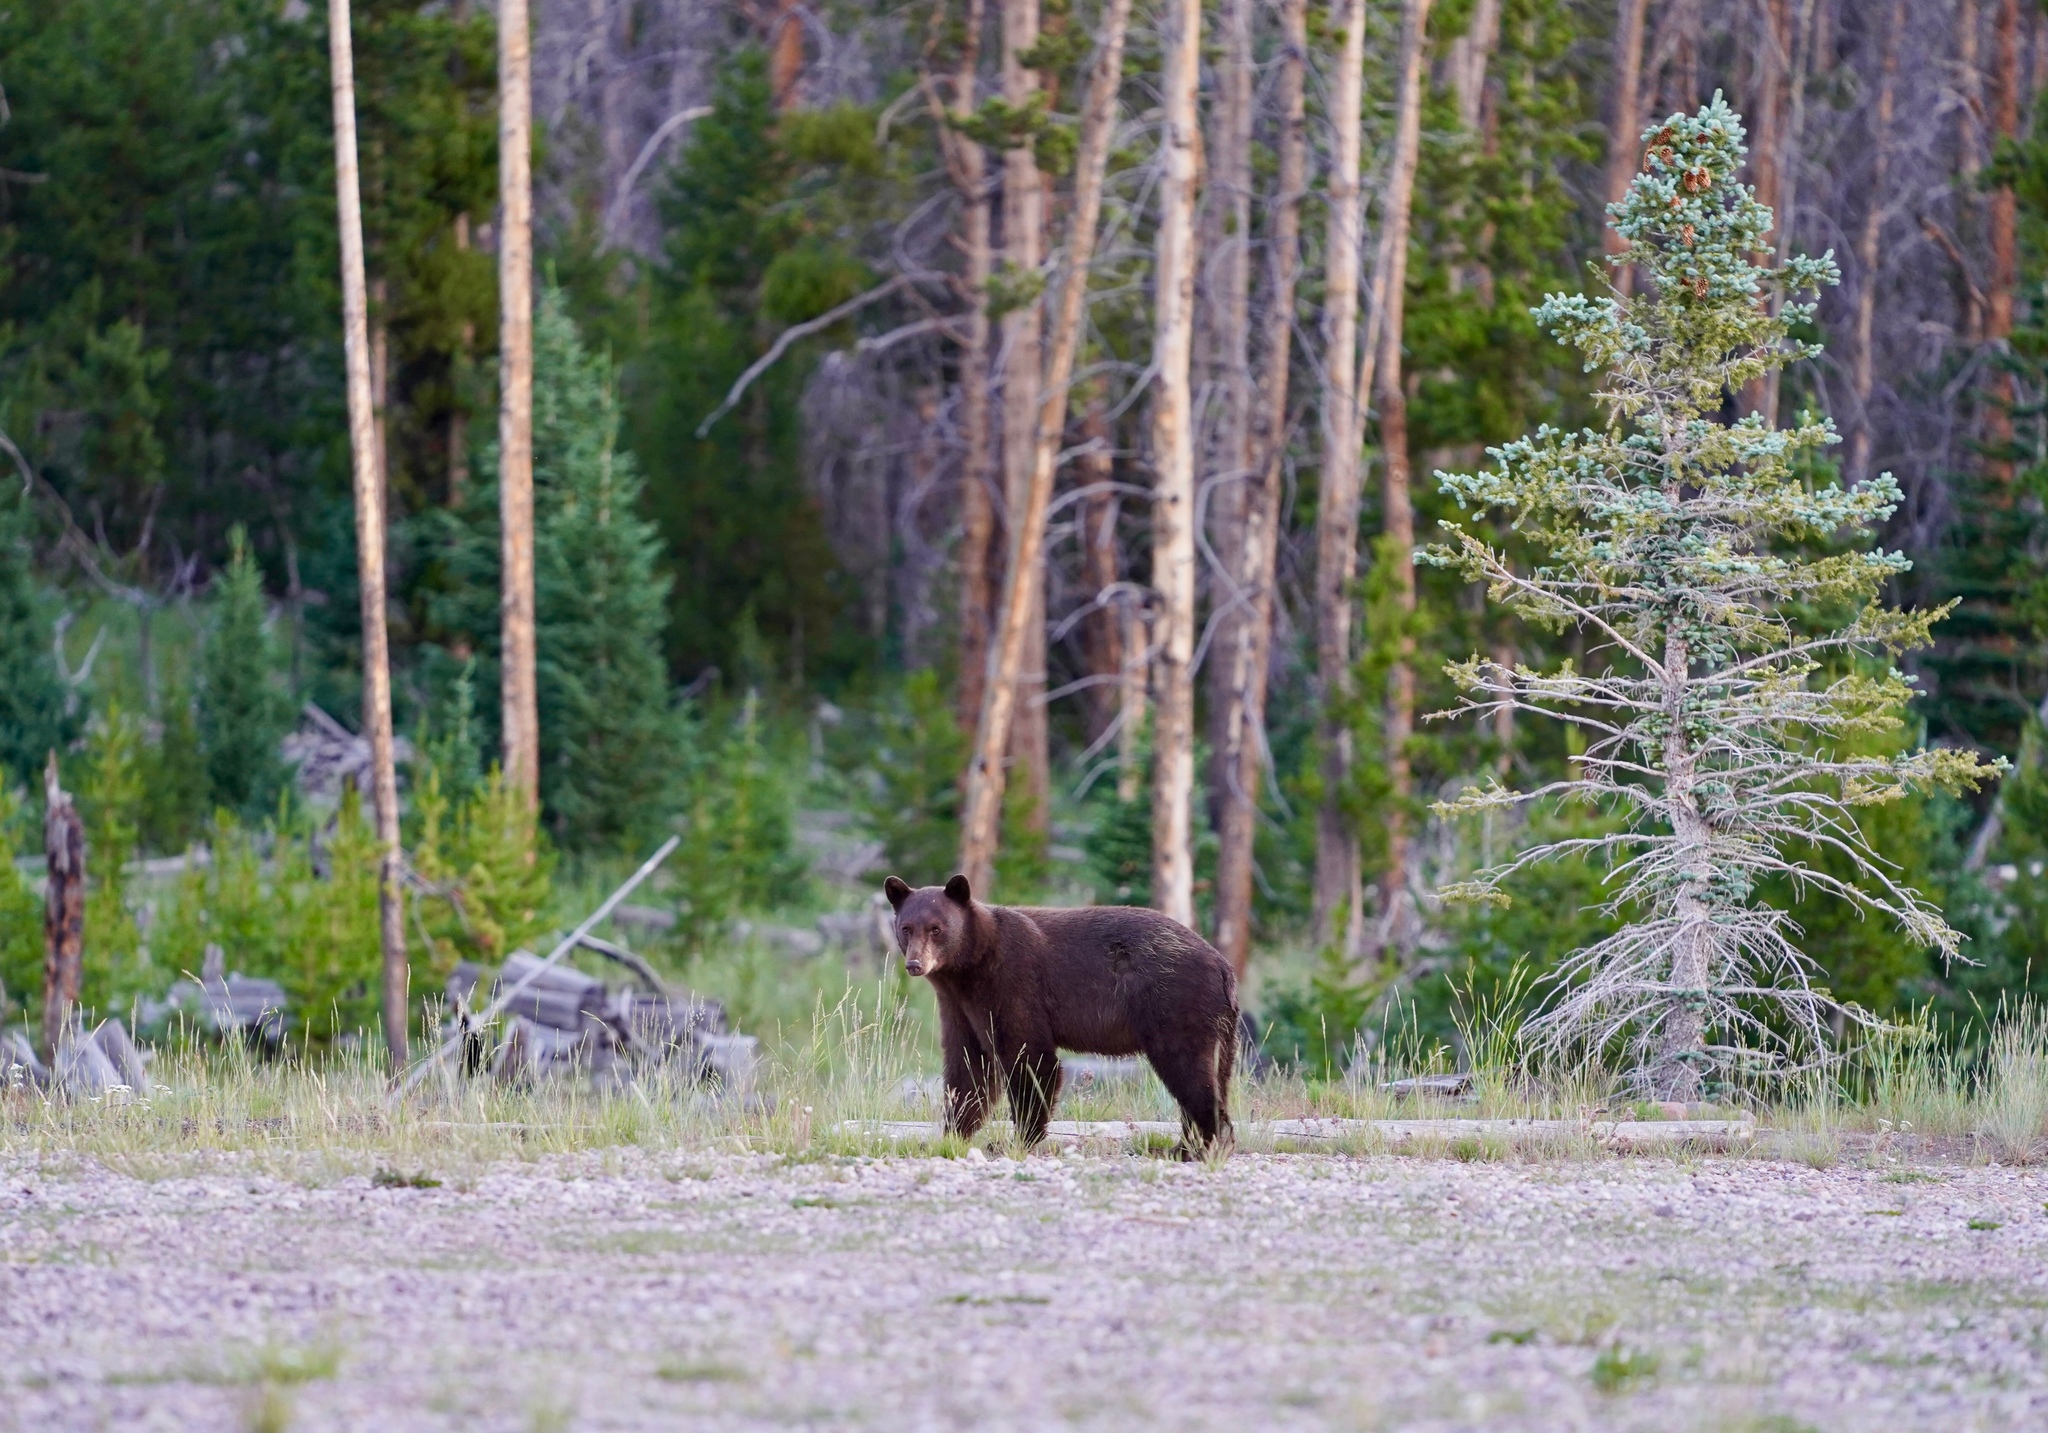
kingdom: Animalia
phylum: Chordata
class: Mammalia
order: Carnivora
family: Ursidae
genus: Ursus
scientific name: Ursus americanus
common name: American black bear
